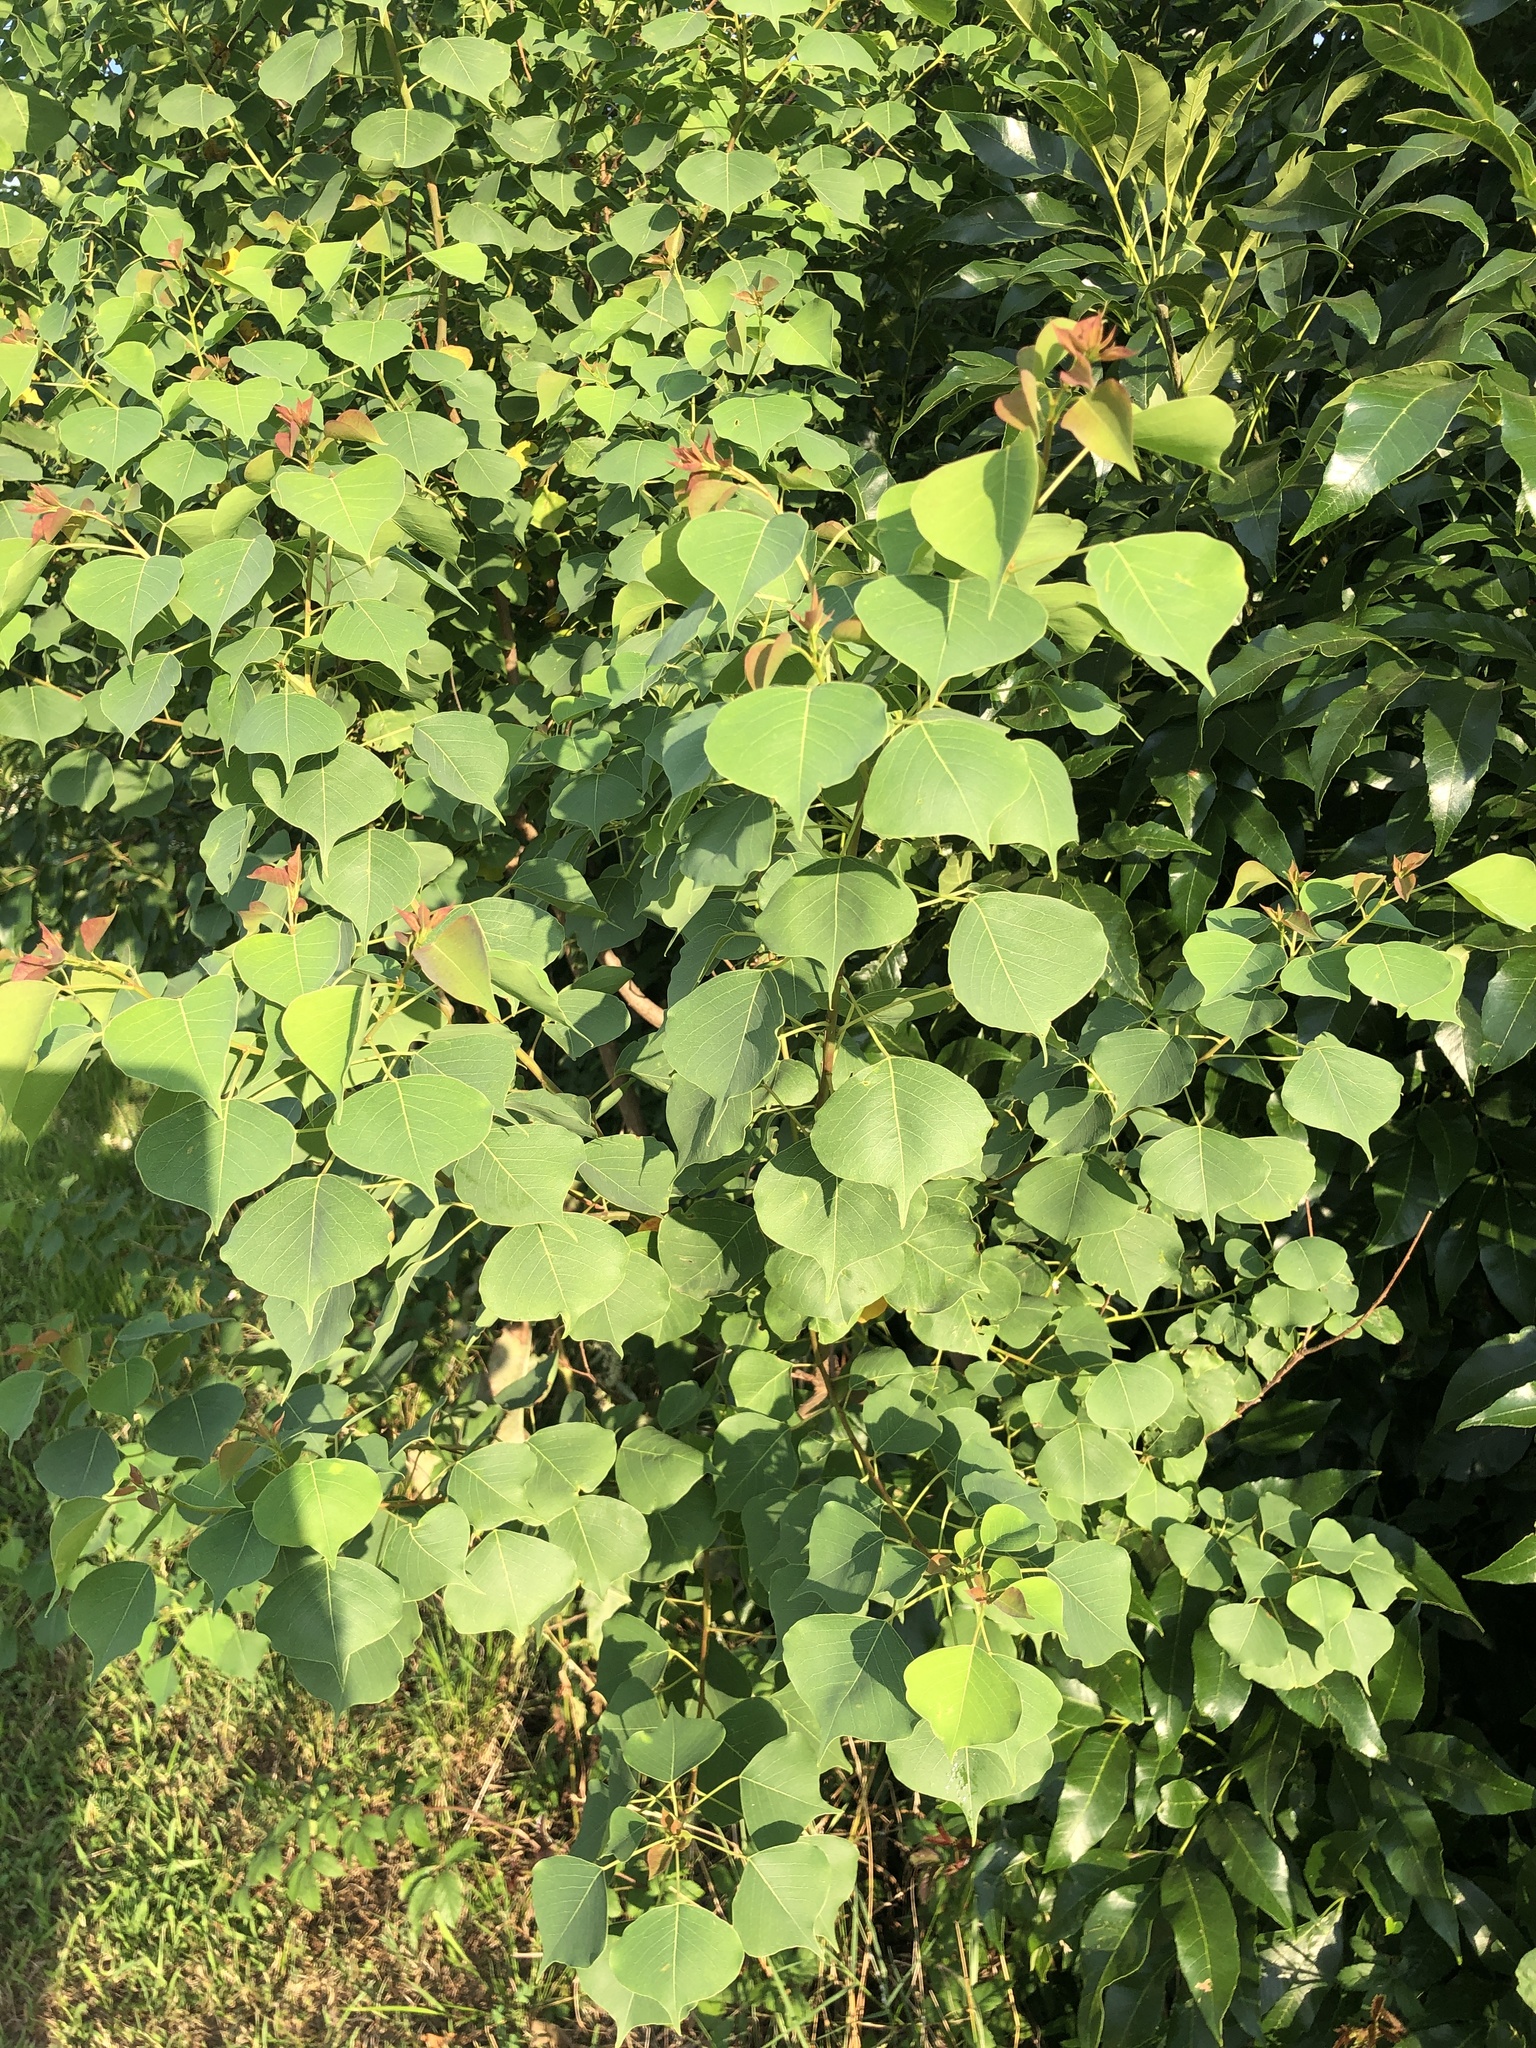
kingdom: Plantae
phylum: Tracheophyta
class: Magnoliopsida
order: Malpighiales
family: Euphorbiaceae
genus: Triadica
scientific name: Triadica sebifera
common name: Chinese tallow
